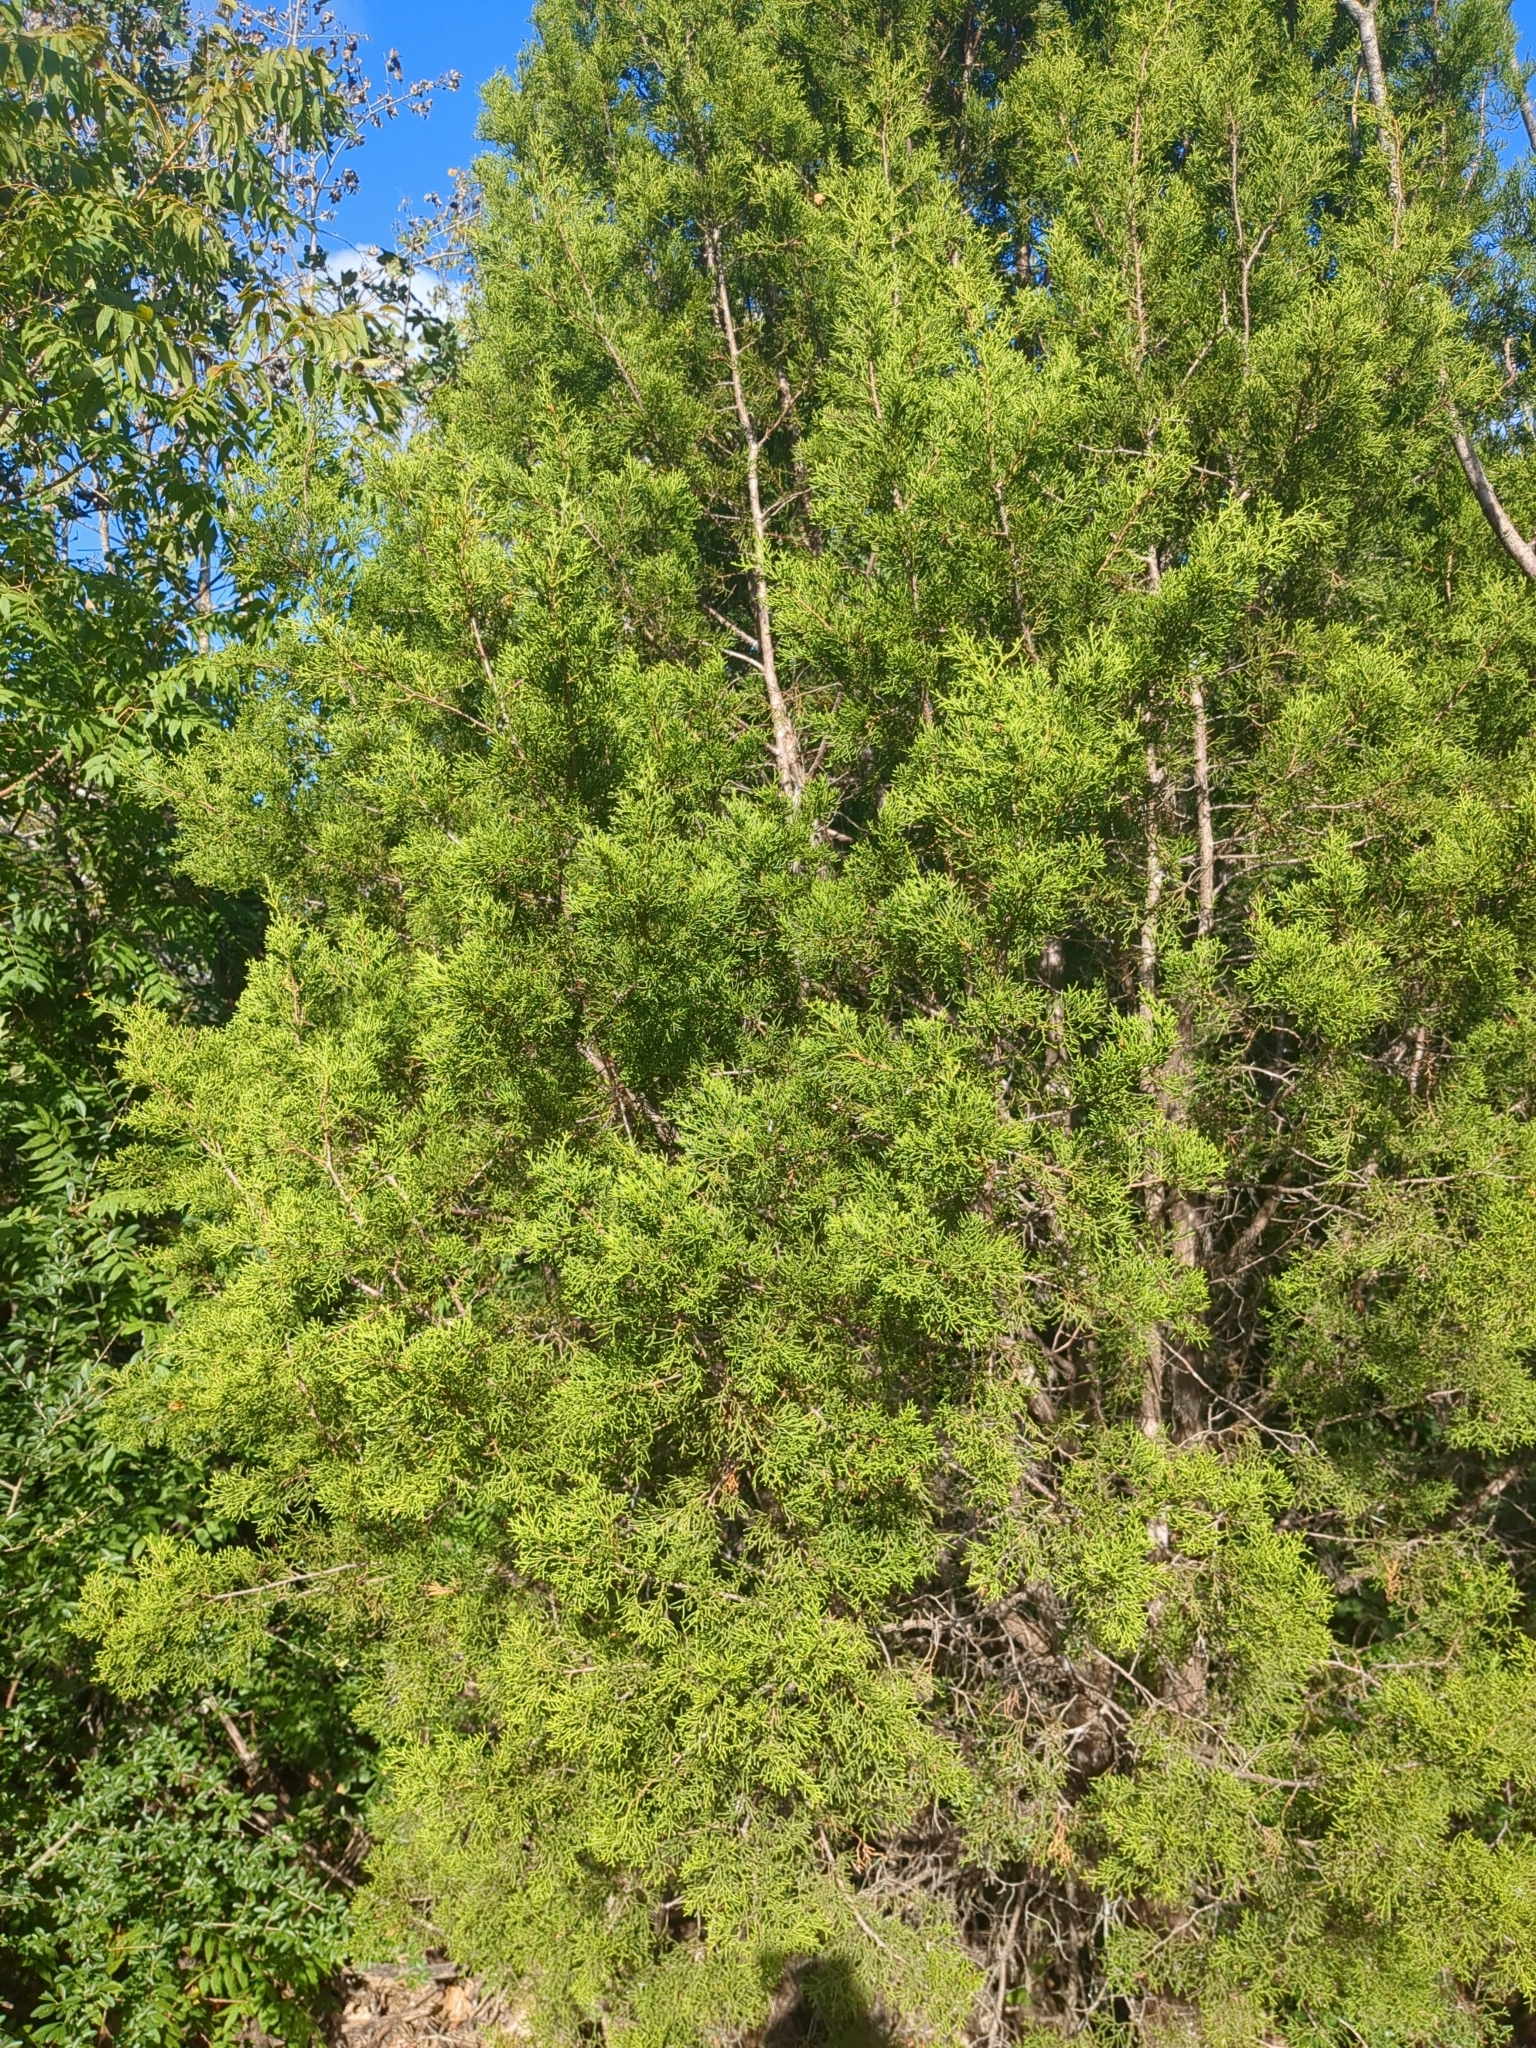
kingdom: Plantae
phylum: Tracheophyta
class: Pinopsida
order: Pinales
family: Cupressaceae
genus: Juniperus
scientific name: Juniperus ashei
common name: Mexican juniper
